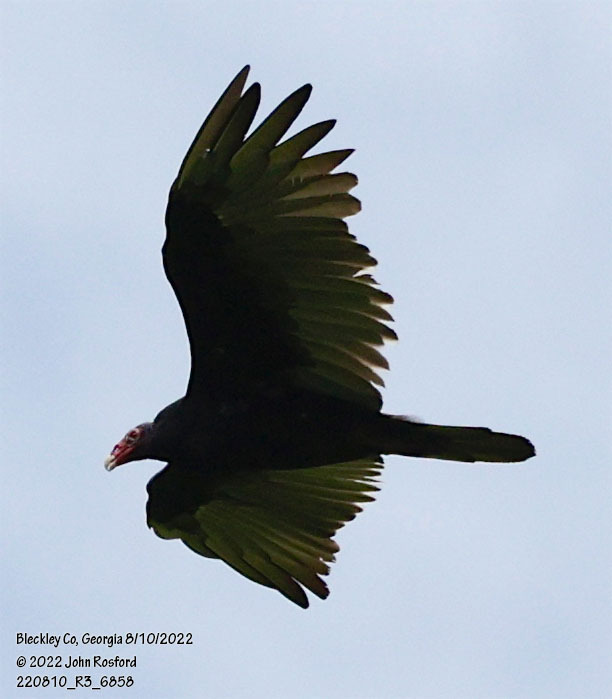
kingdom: Animalia
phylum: Chordata
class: Aves
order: Accipitriformes
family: Cathartidae
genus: Cathartes
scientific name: Cathartes aura
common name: Turkey vulture
